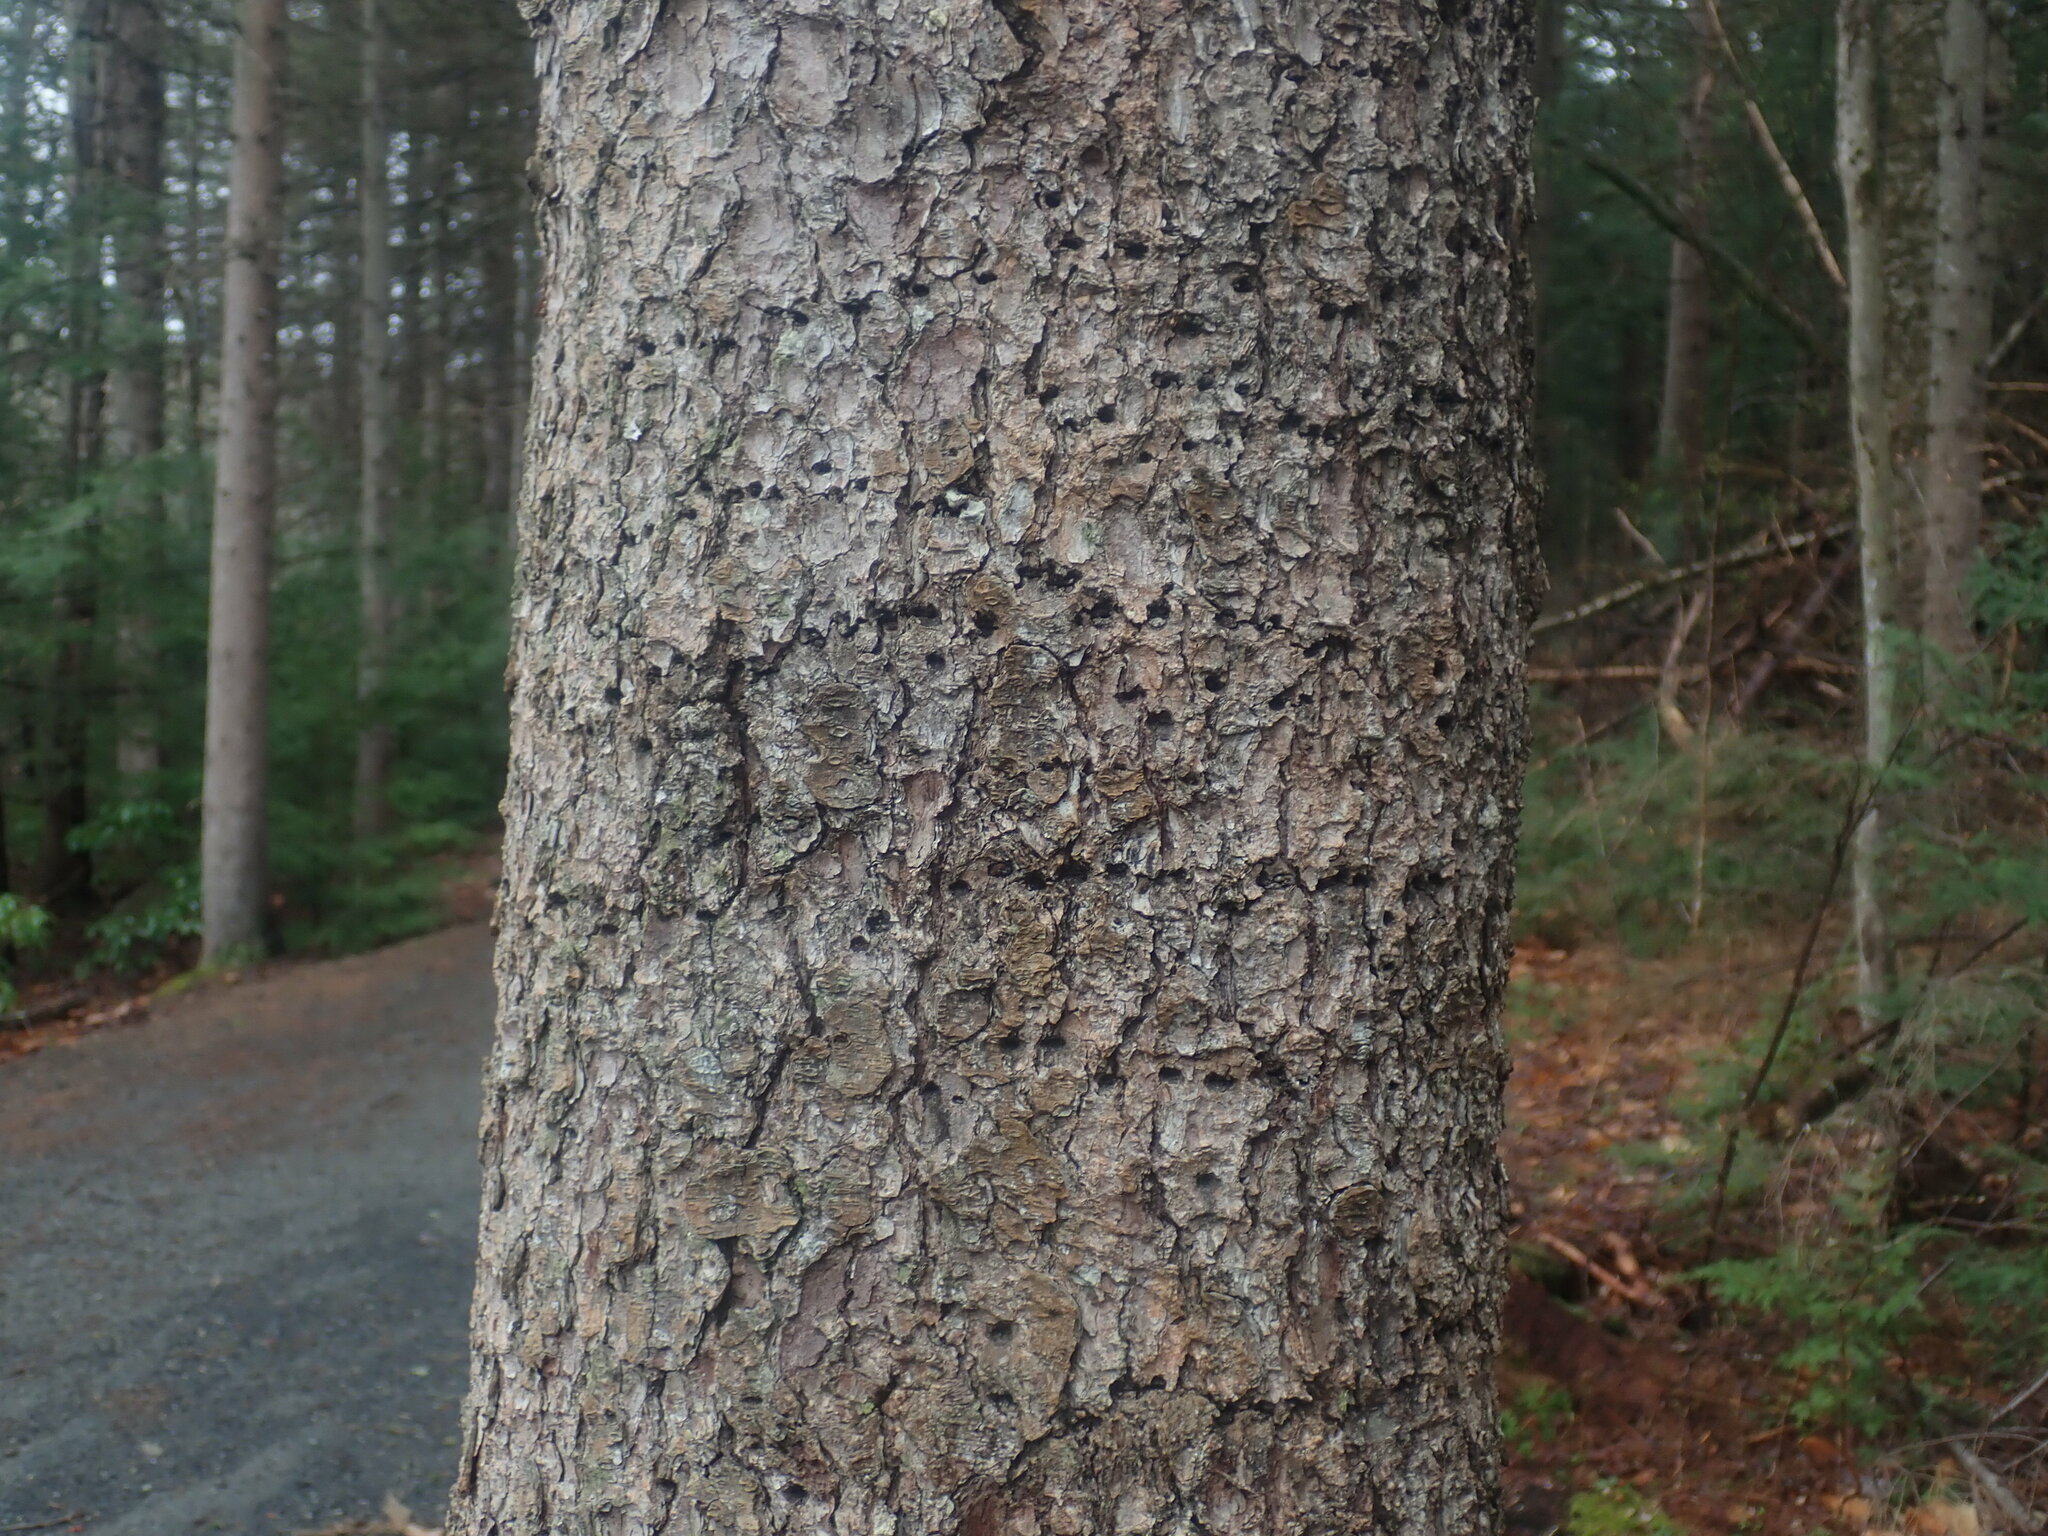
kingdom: Animalia
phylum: Chordata
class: Aves
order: Piciformes
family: Picidae
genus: Sphyrapicus
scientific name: Sphyrapicus varius
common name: Yellow-bellied sapsucker
